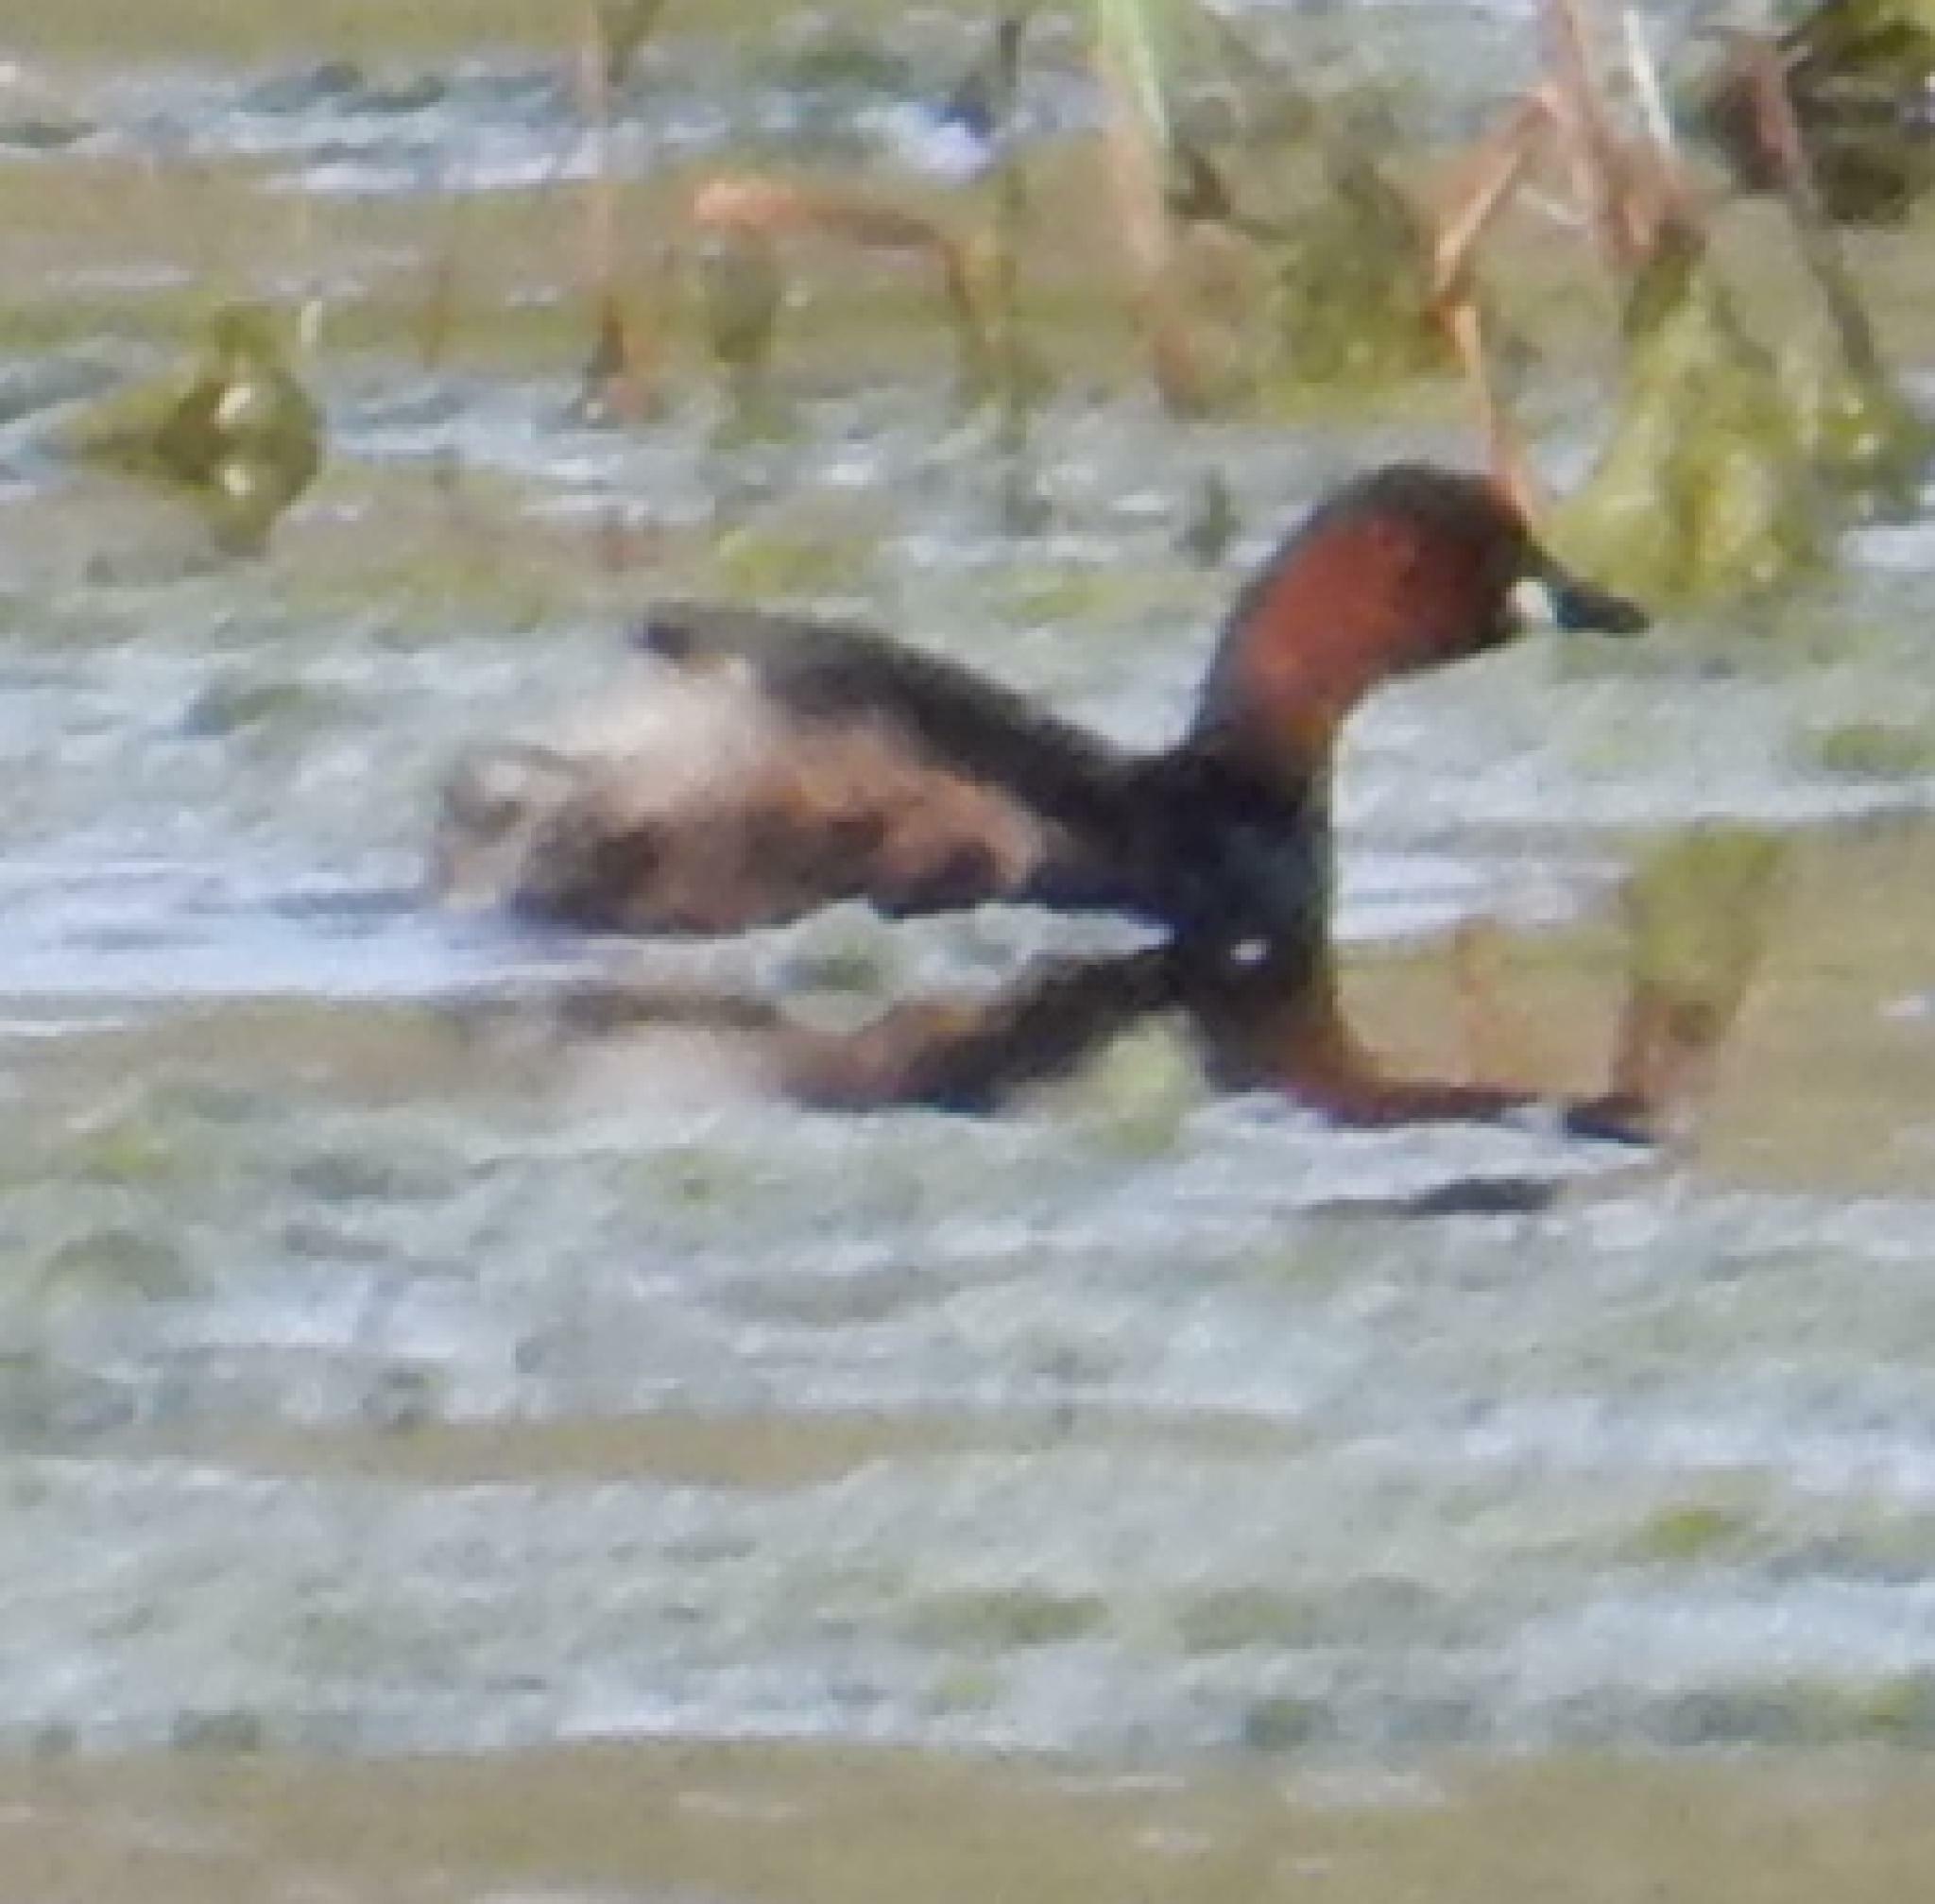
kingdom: Animalia
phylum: Chordata
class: Aves
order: Podicipediformes
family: Podicipedidae
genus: Tachybaptus
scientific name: Tachybaptus ruficollis
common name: Little grebe
